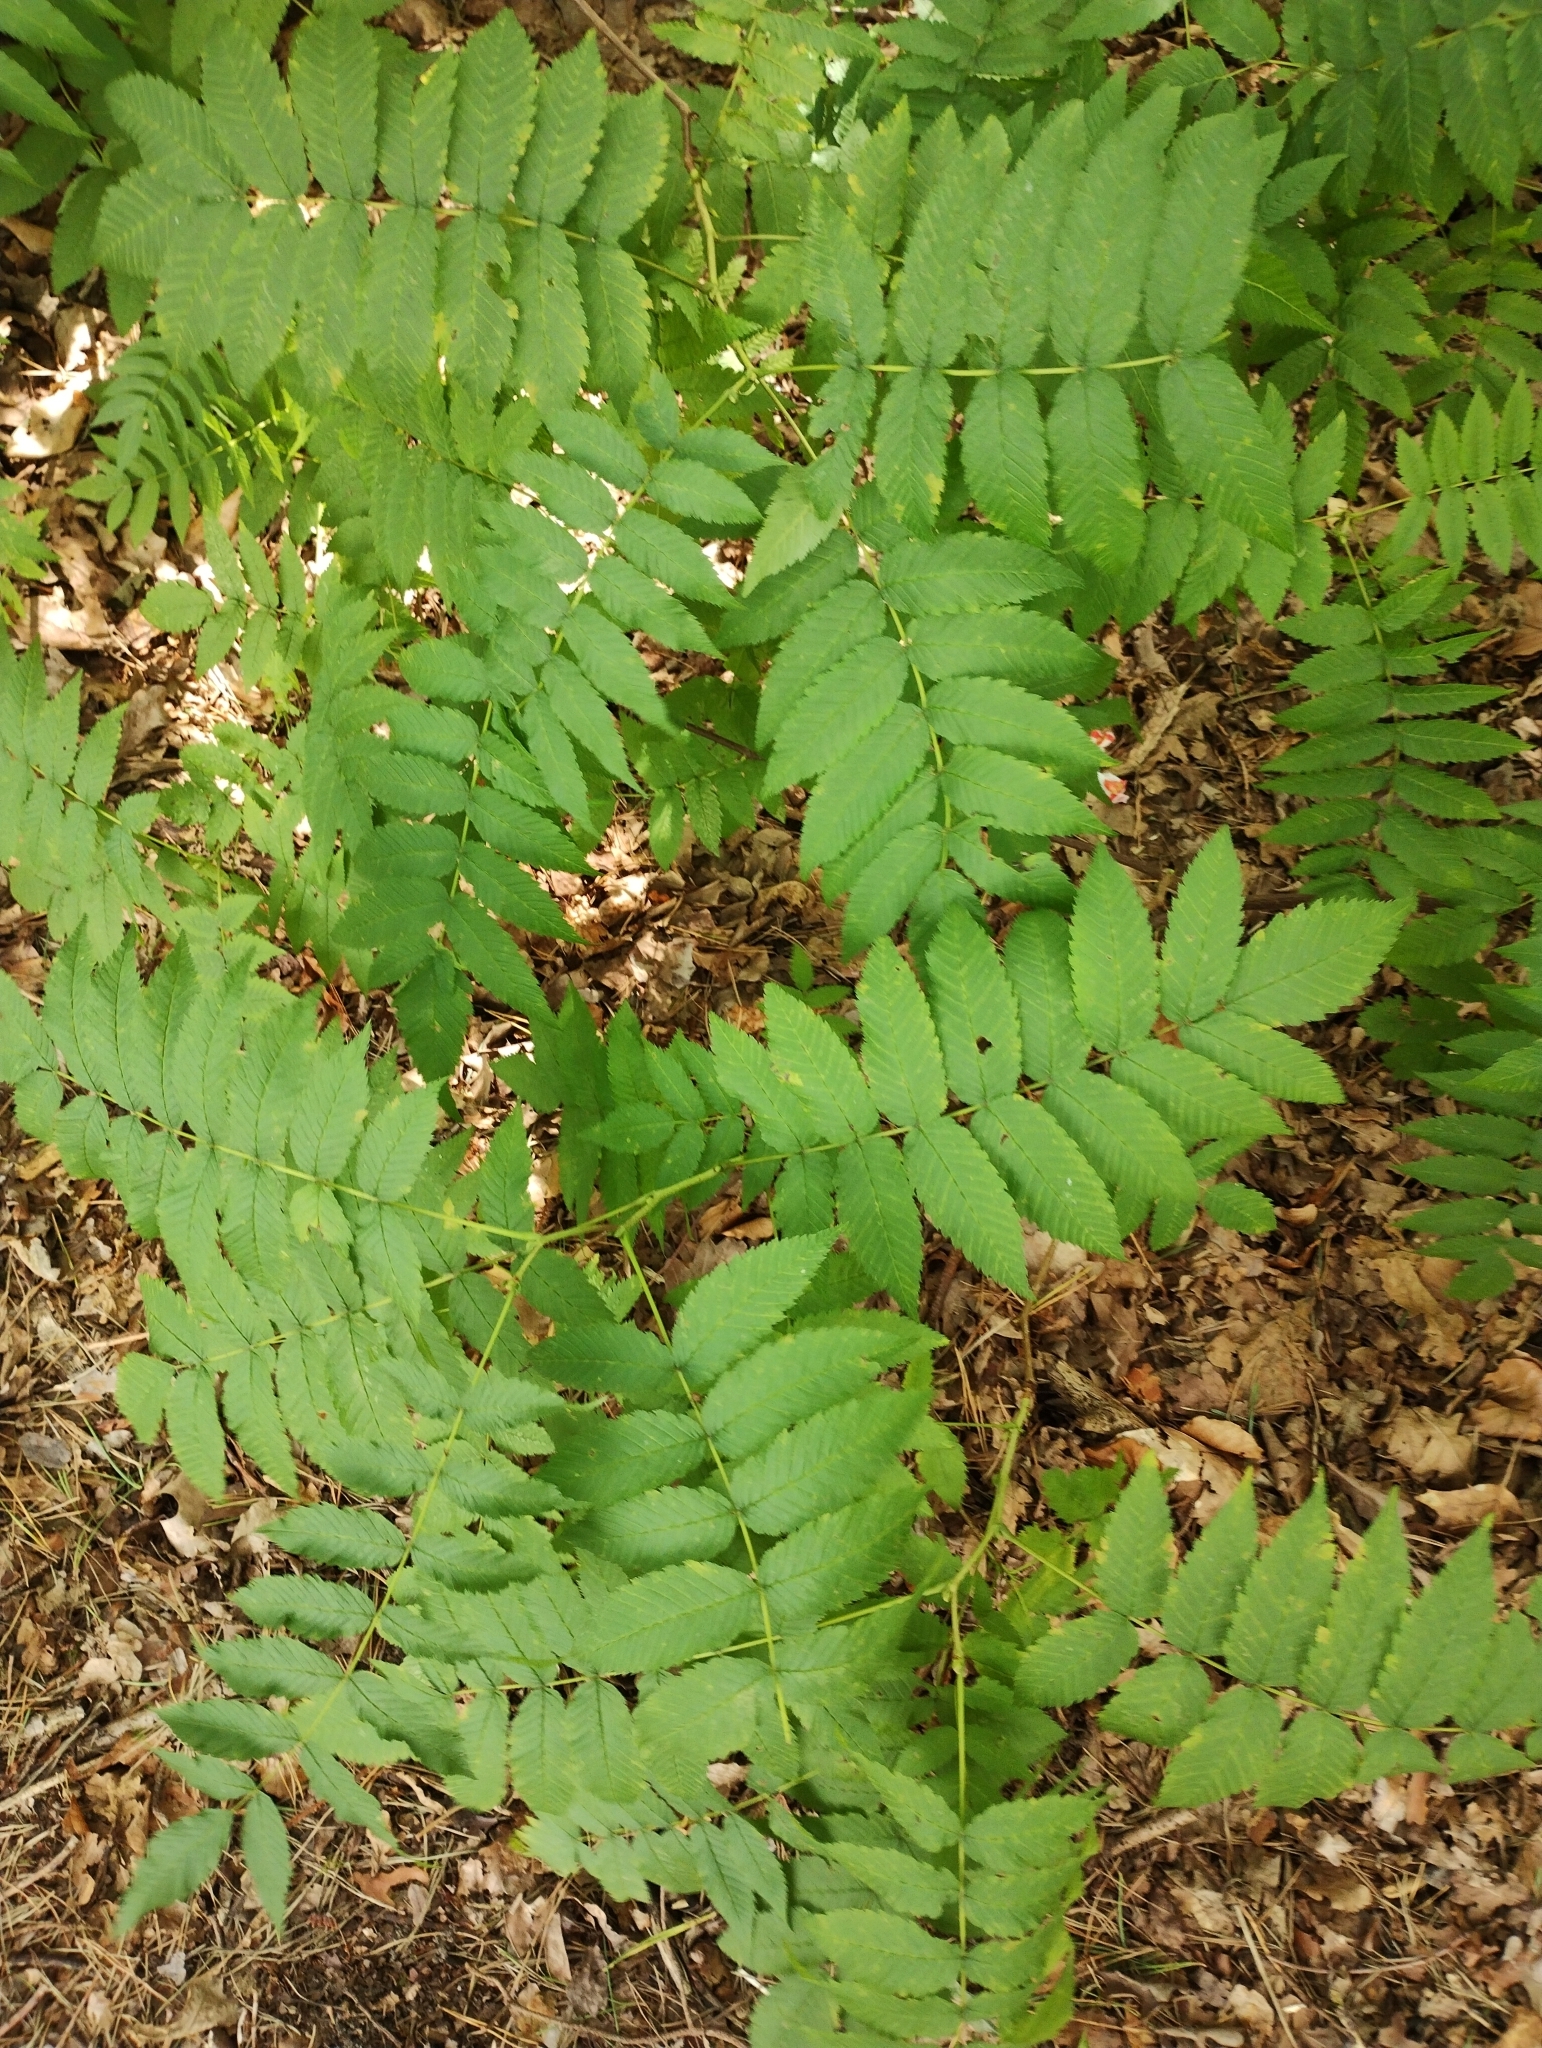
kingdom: Plantae
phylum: Tracheophyta
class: Magnoliopsida
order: Rosales
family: Rosaceae
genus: Sorbaria
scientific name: Sorbaria sorbifolia
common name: False spiraea
